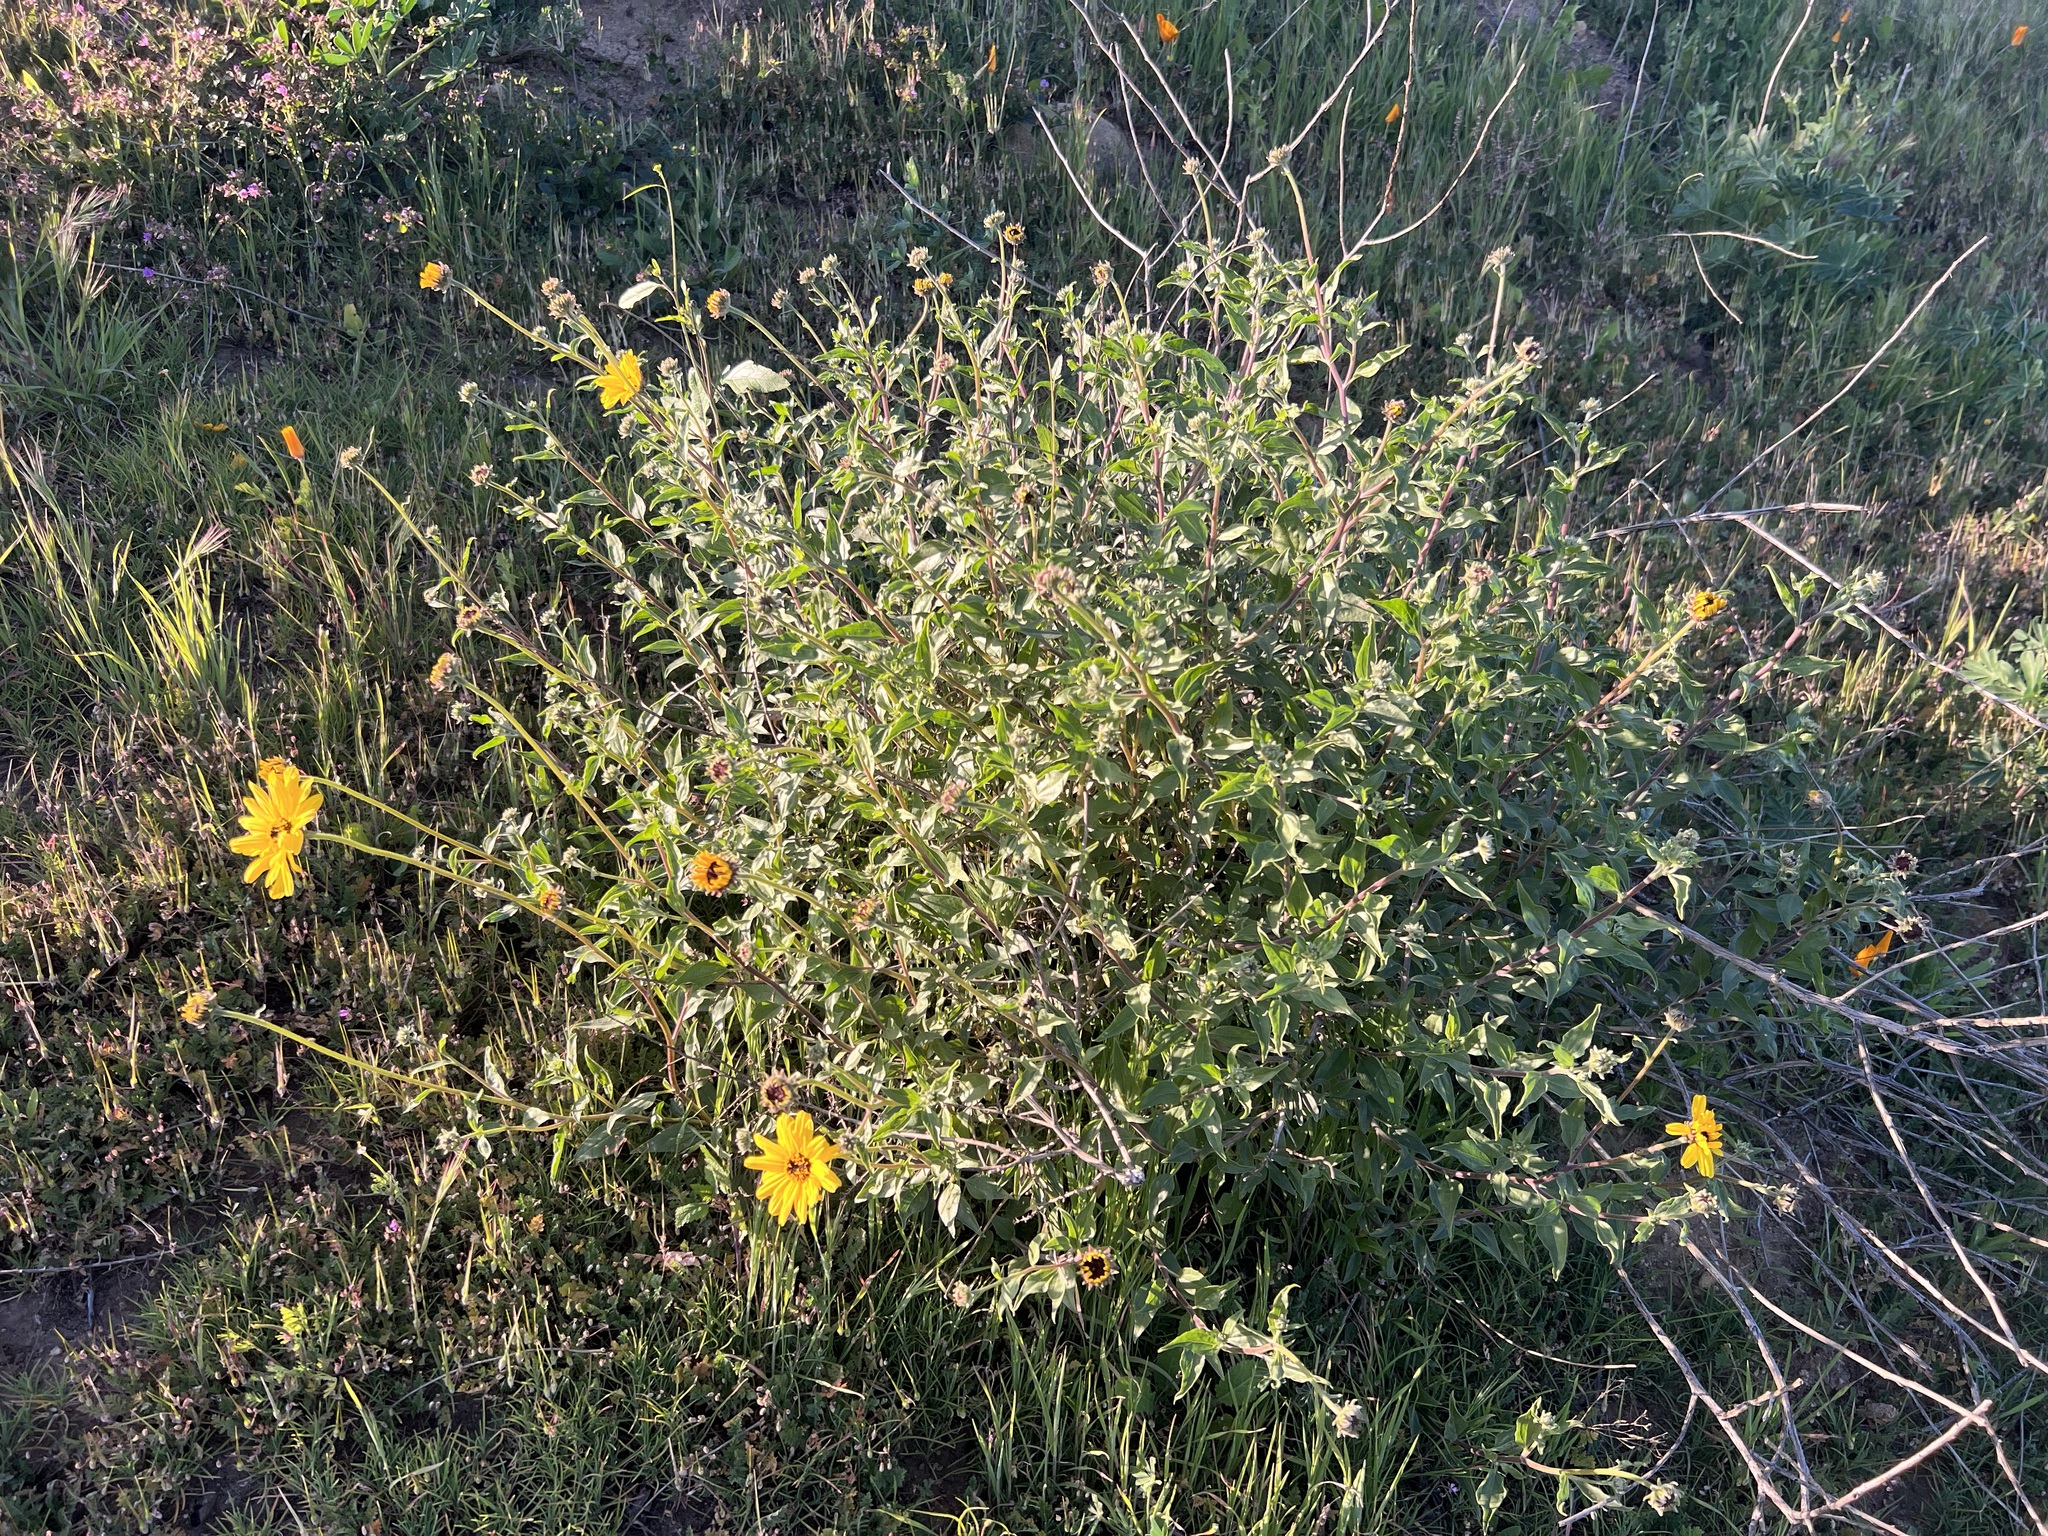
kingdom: Plantae
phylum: Tracheophyta
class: Magnoliopsida
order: Asterales
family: Asteraceae
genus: Encelia
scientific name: Encelia californica
